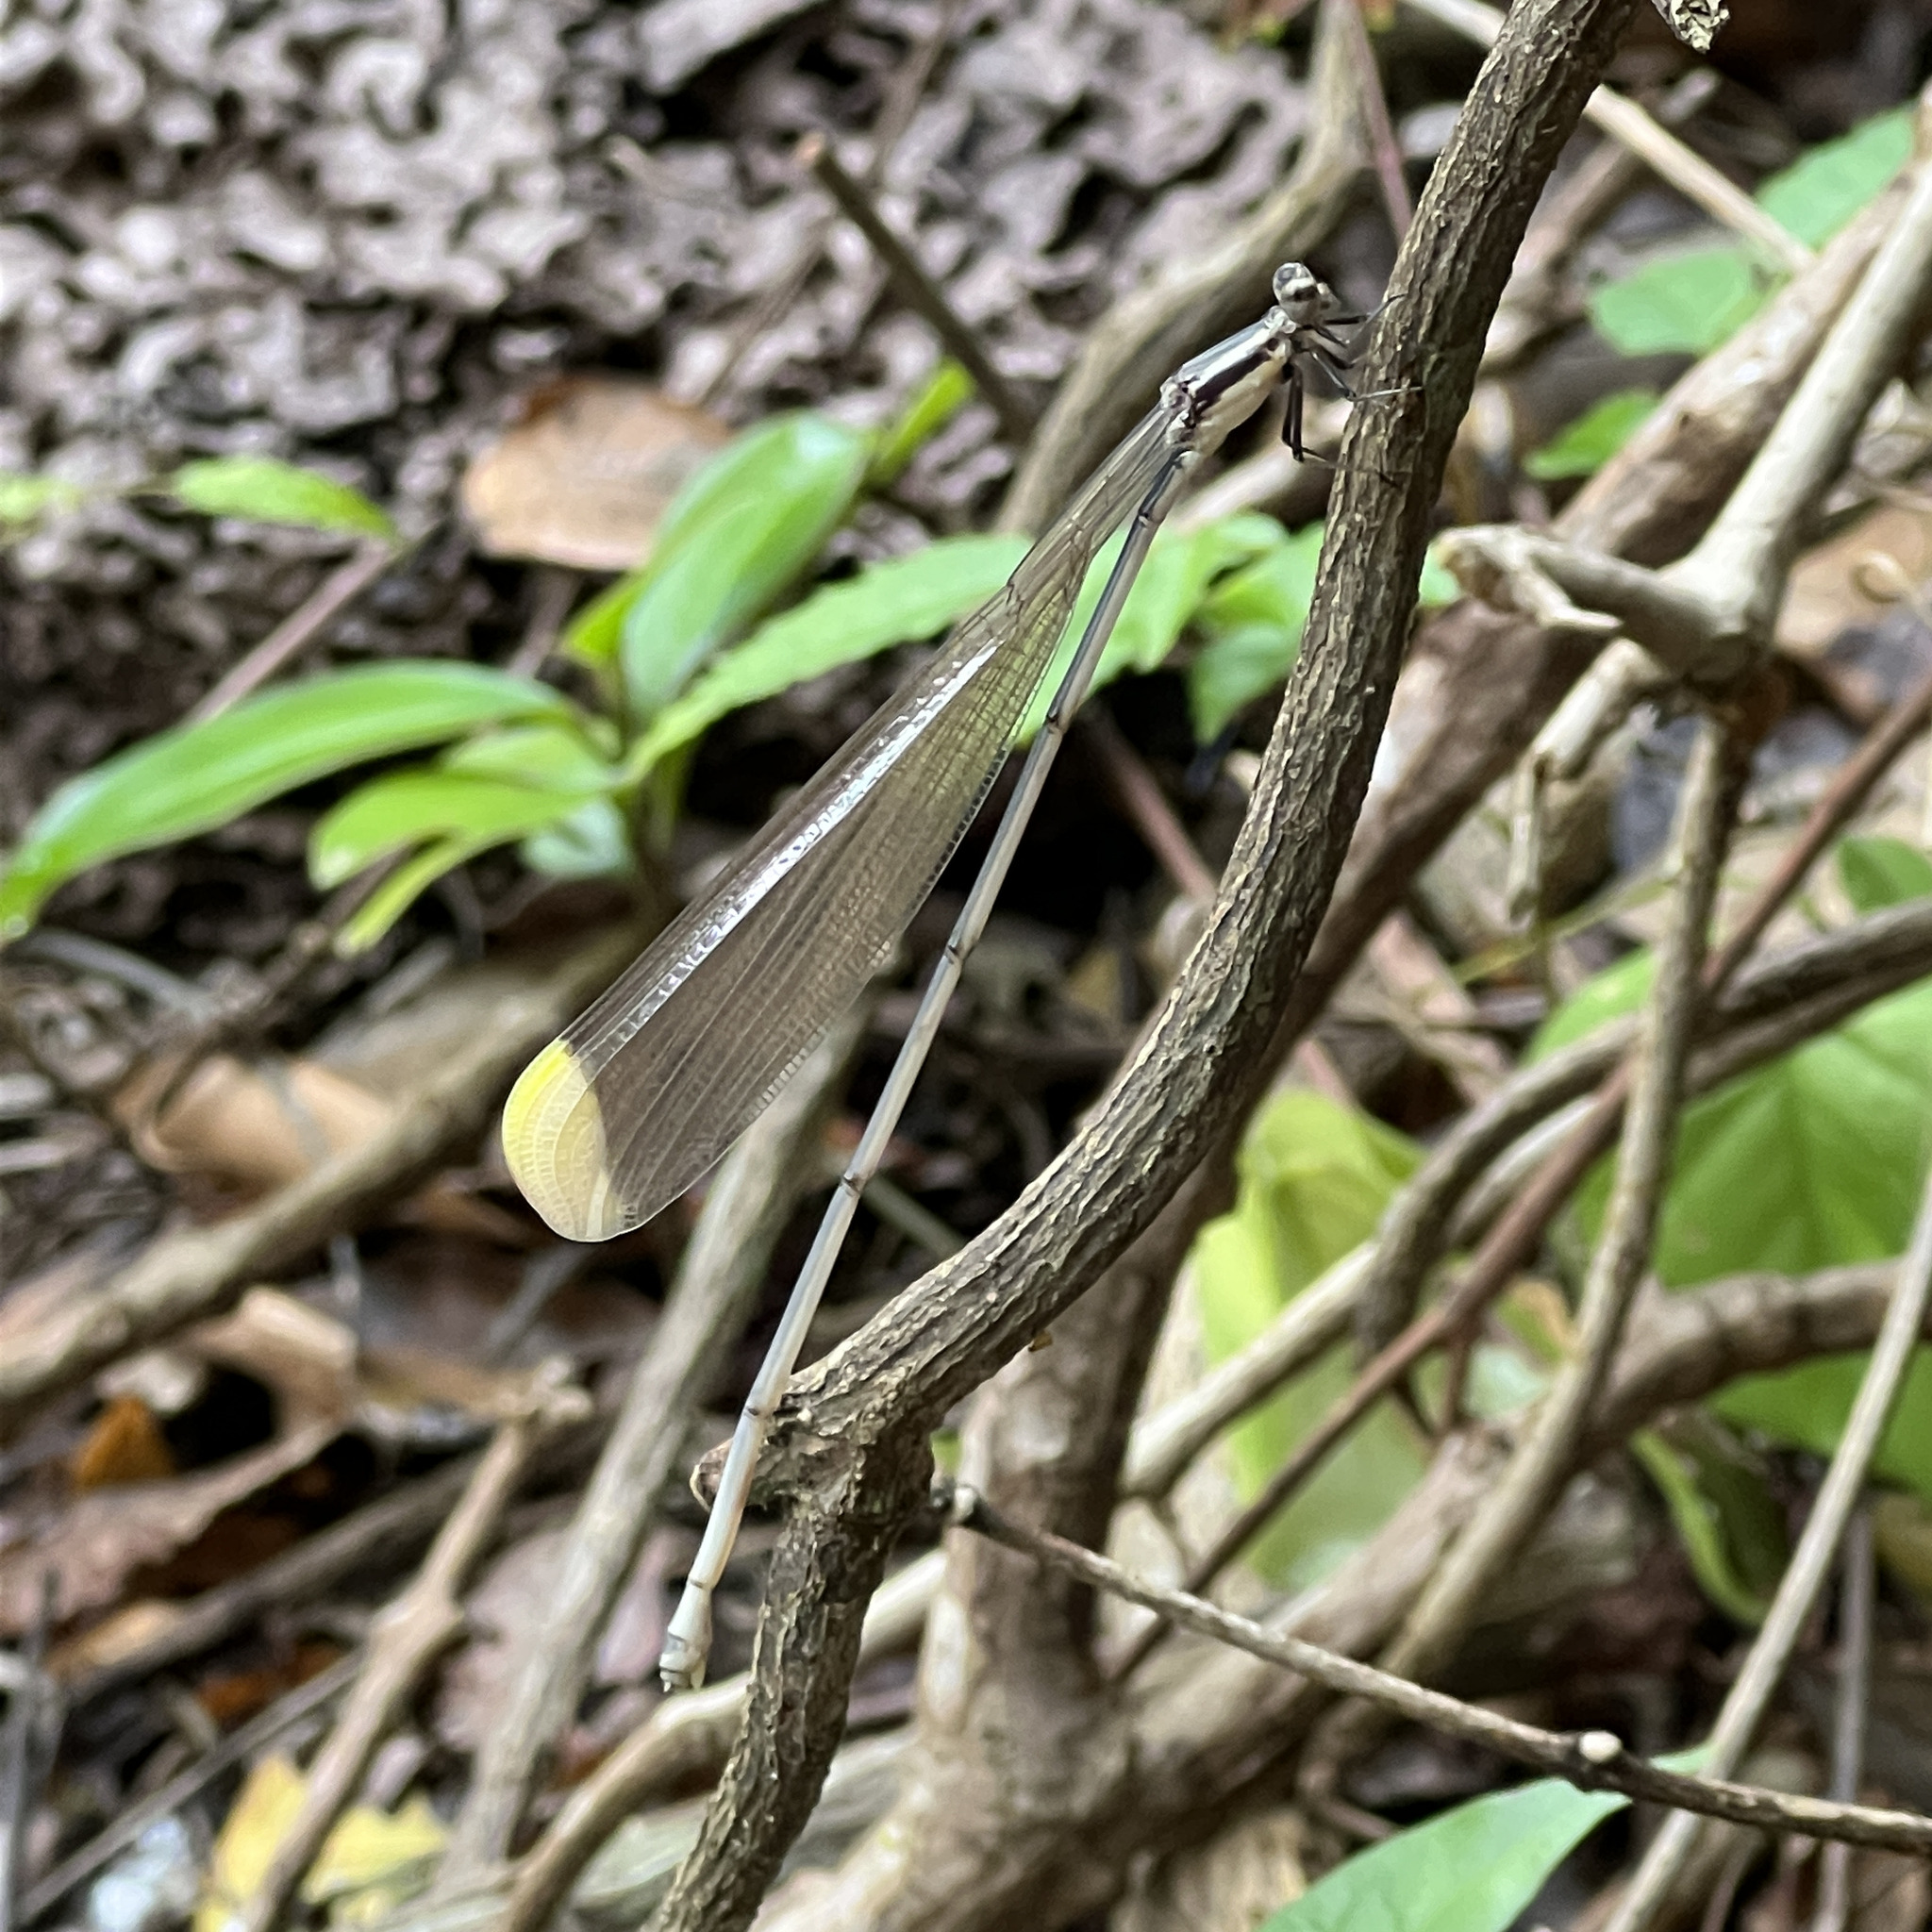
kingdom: Animalia
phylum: Arthropoda
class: Insecta
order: Odonata
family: Coenagrionidae
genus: Mecistogaster
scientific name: Mecistogaster ornata
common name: Ornate helicopter
